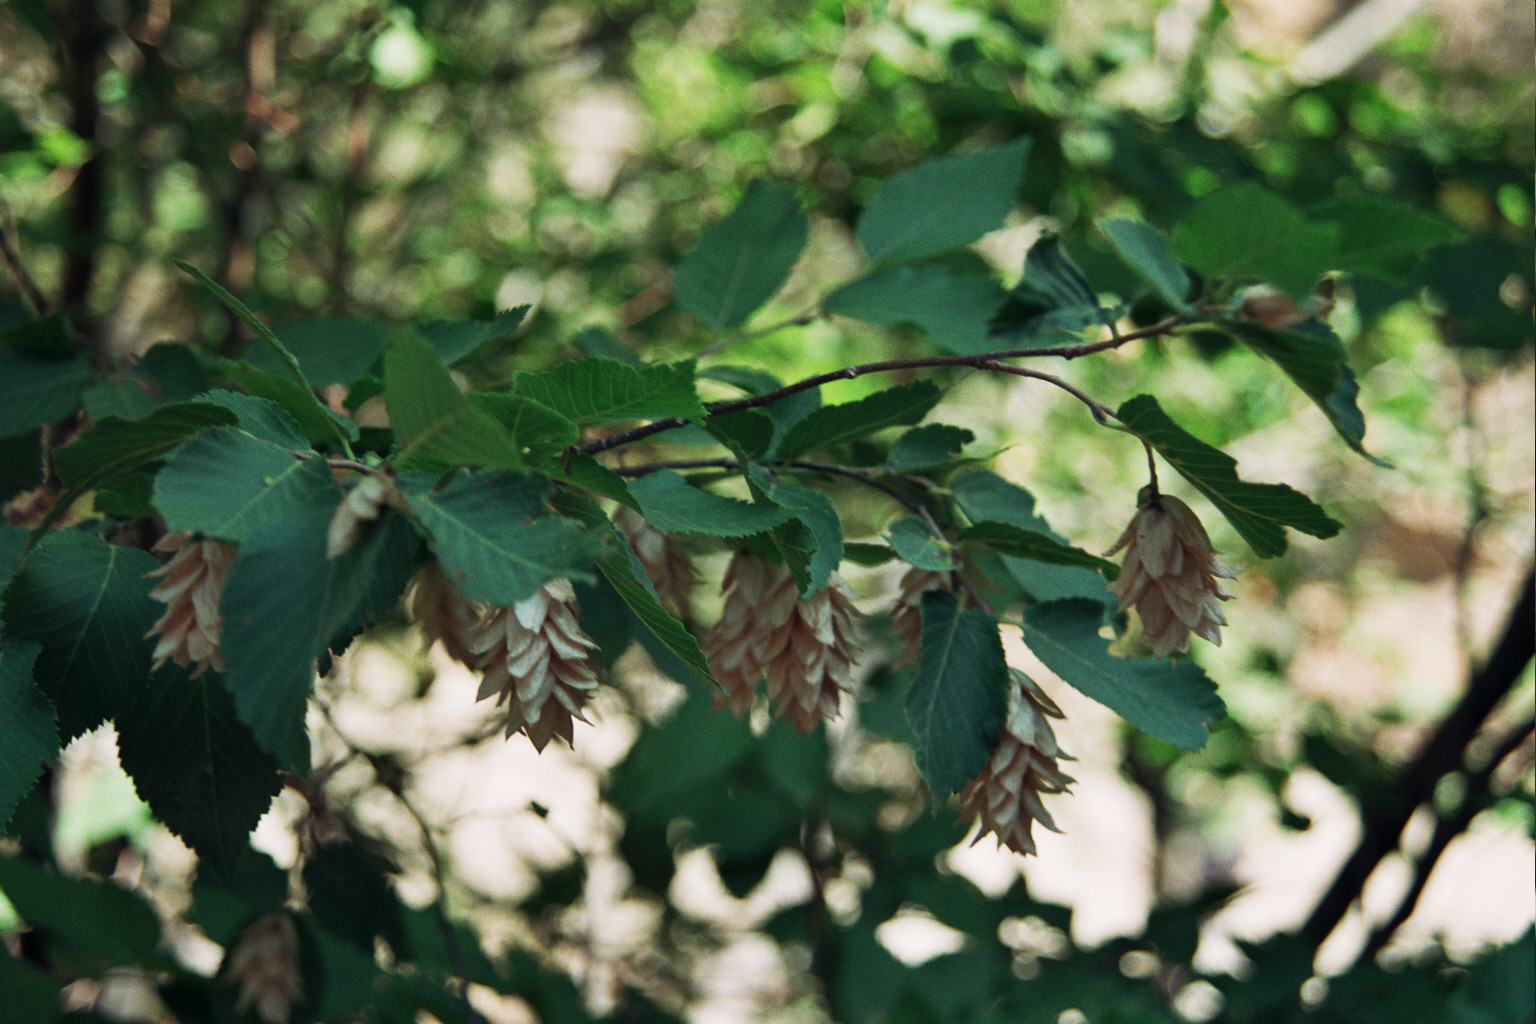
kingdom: Plantae
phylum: Tracheophyta
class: Magnoliopsida
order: Fagales
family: Betulaceae
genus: Ostrya
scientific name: Ostrya carpinifolia
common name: European hop-hornbeam
